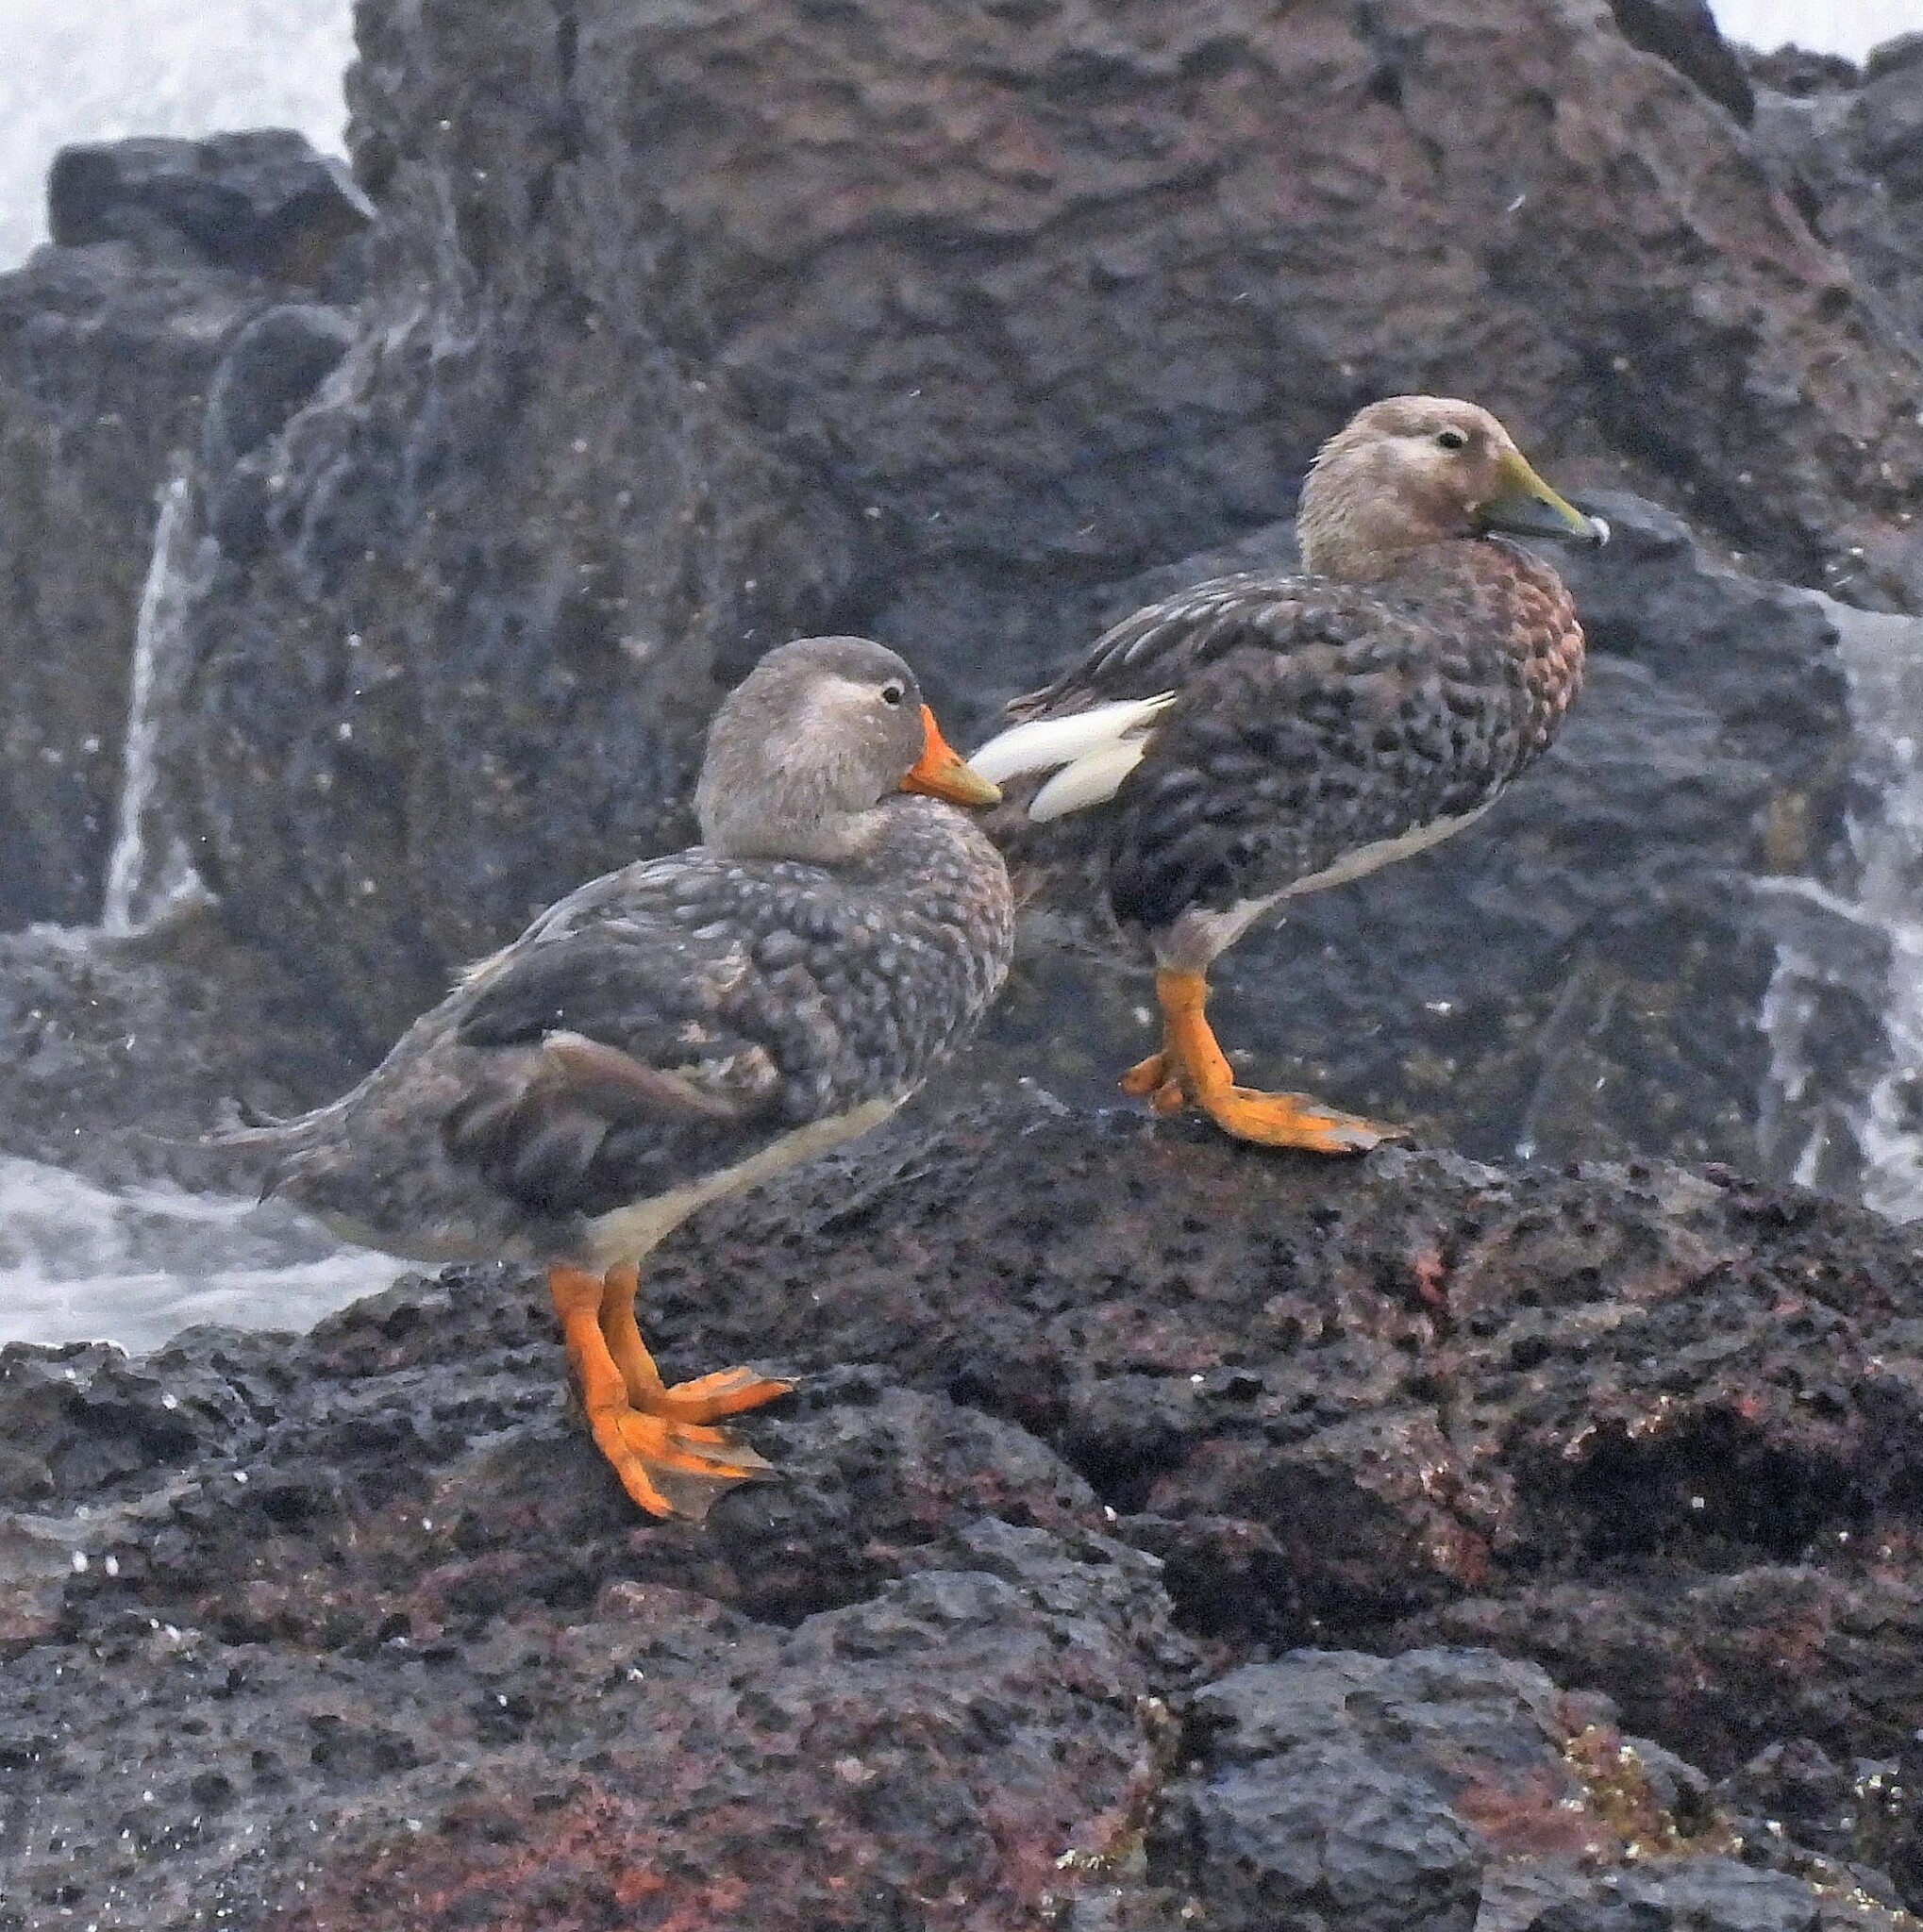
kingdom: Animalia
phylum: Chordata
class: Aves
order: Anseriformes
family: Anatidae
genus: Tachyeres
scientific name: Tachyeres leucocephalus
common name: Chubut steamer duck
